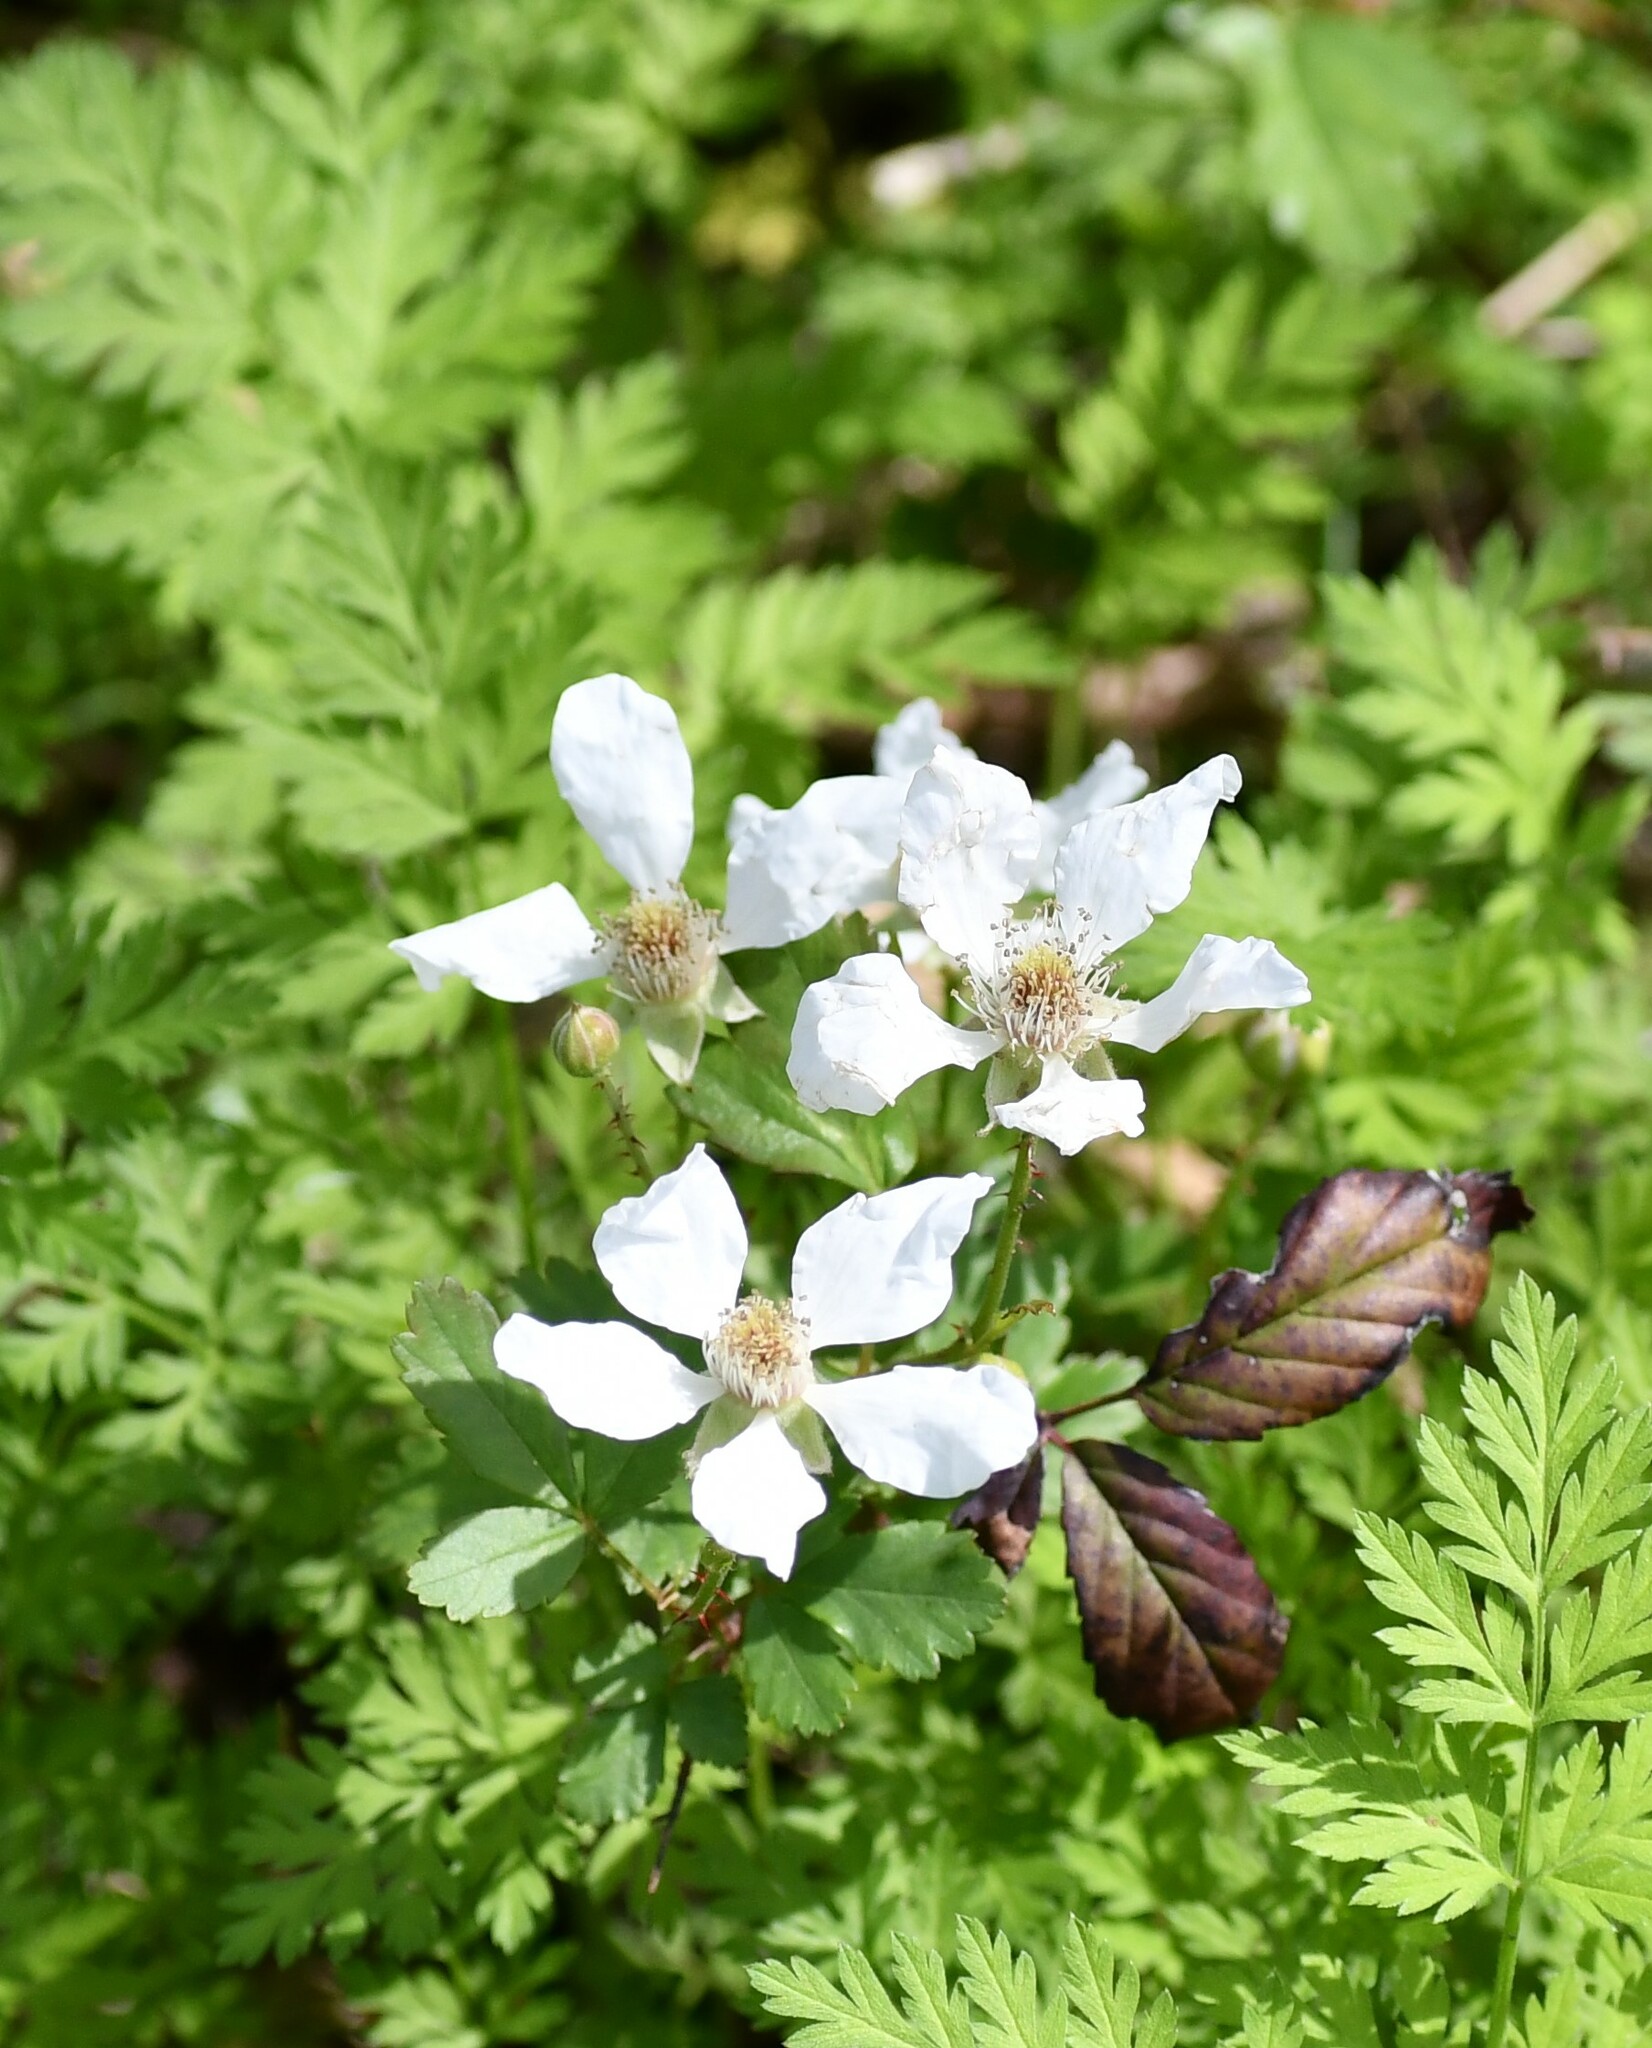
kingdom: Plantae
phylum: Tracheophyta
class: Magnoliopsida
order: Rosales
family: Rosaceae
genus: Rubus
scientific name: Rubus trivialis
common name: Southern dewberry
